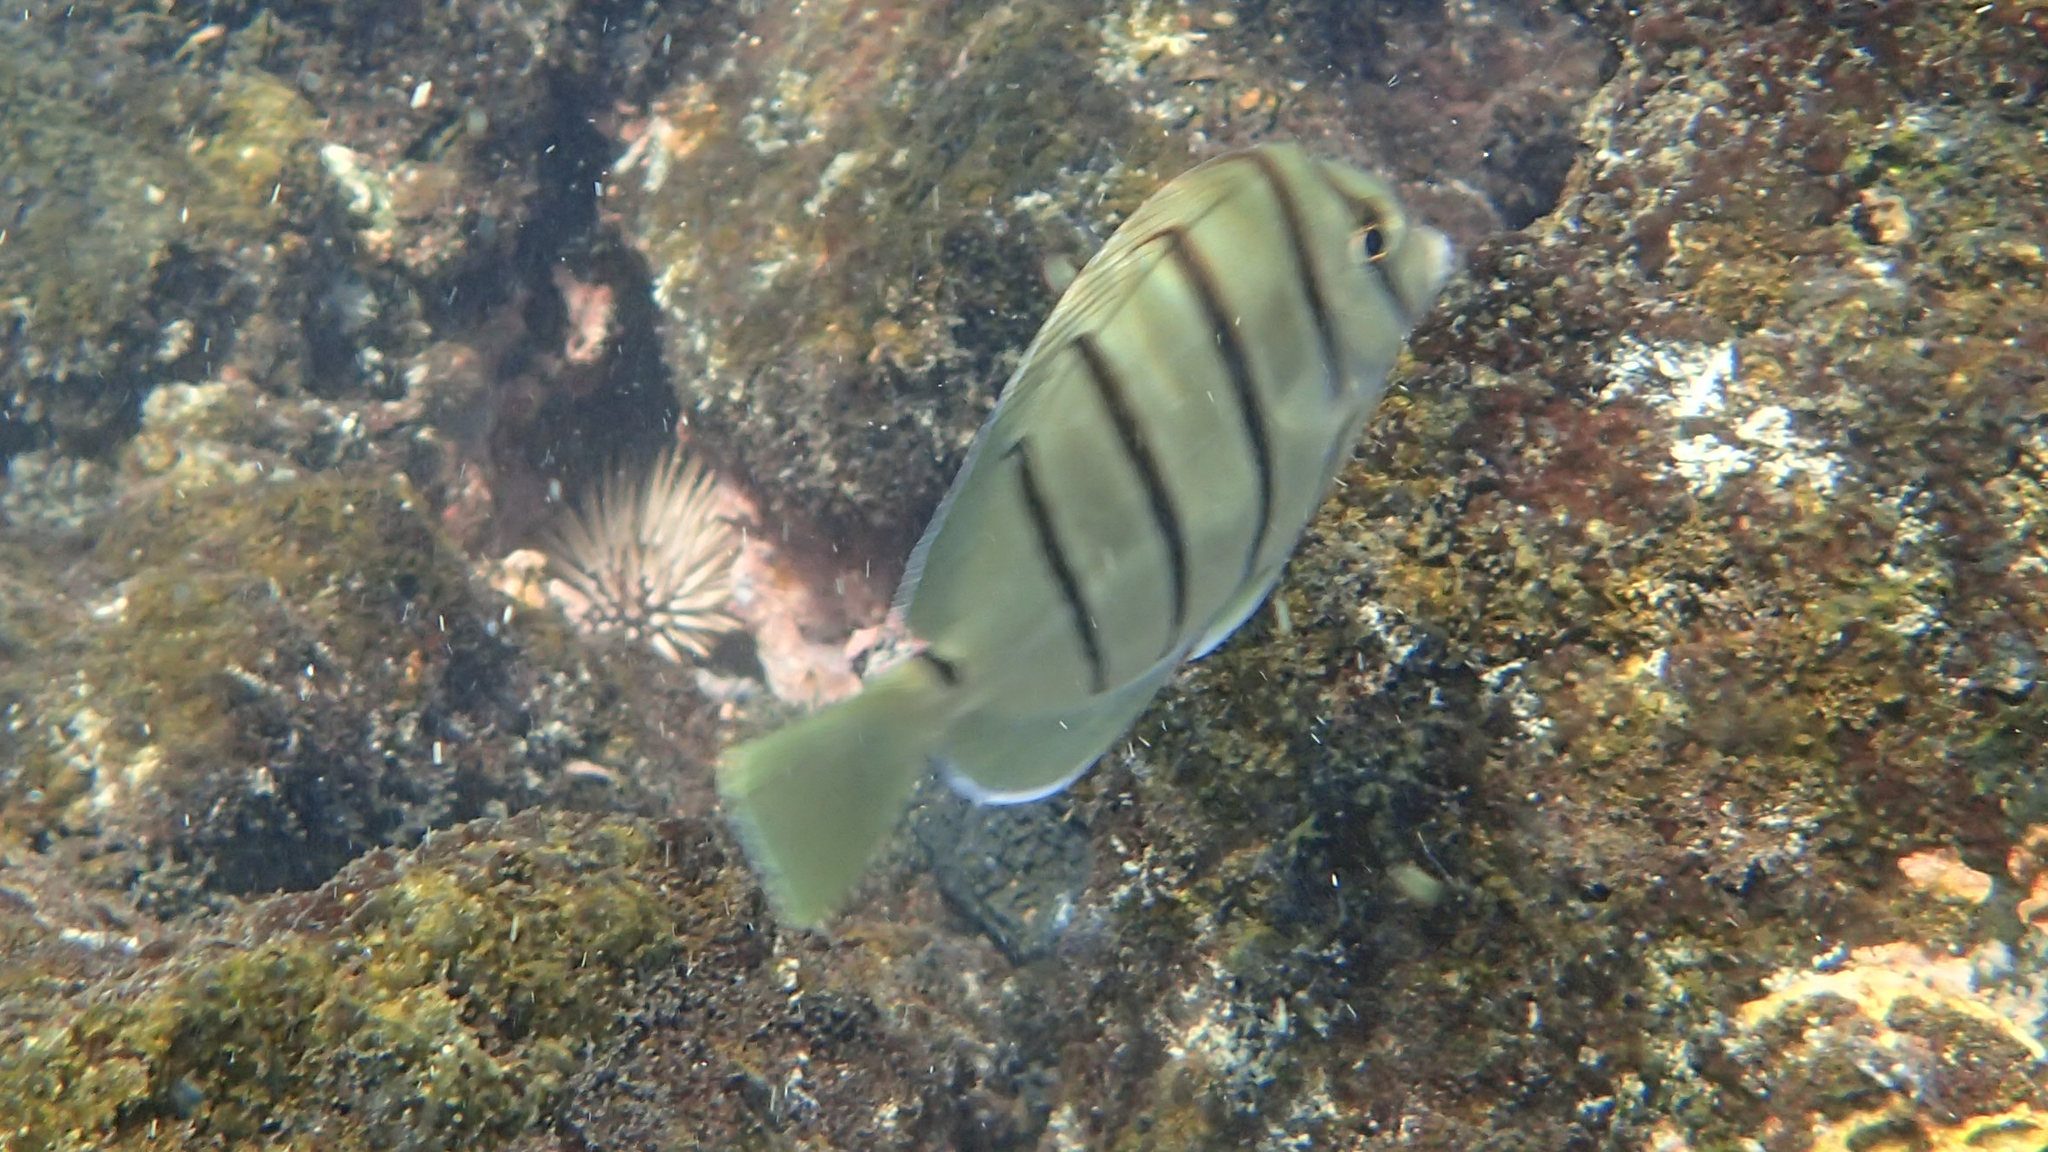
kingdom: Animalia
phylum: Chordata
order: Perciformes
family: Acanthuridae
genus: Acanthurus
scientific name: Acanthurus triostegus
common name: Convict surgeonfish
